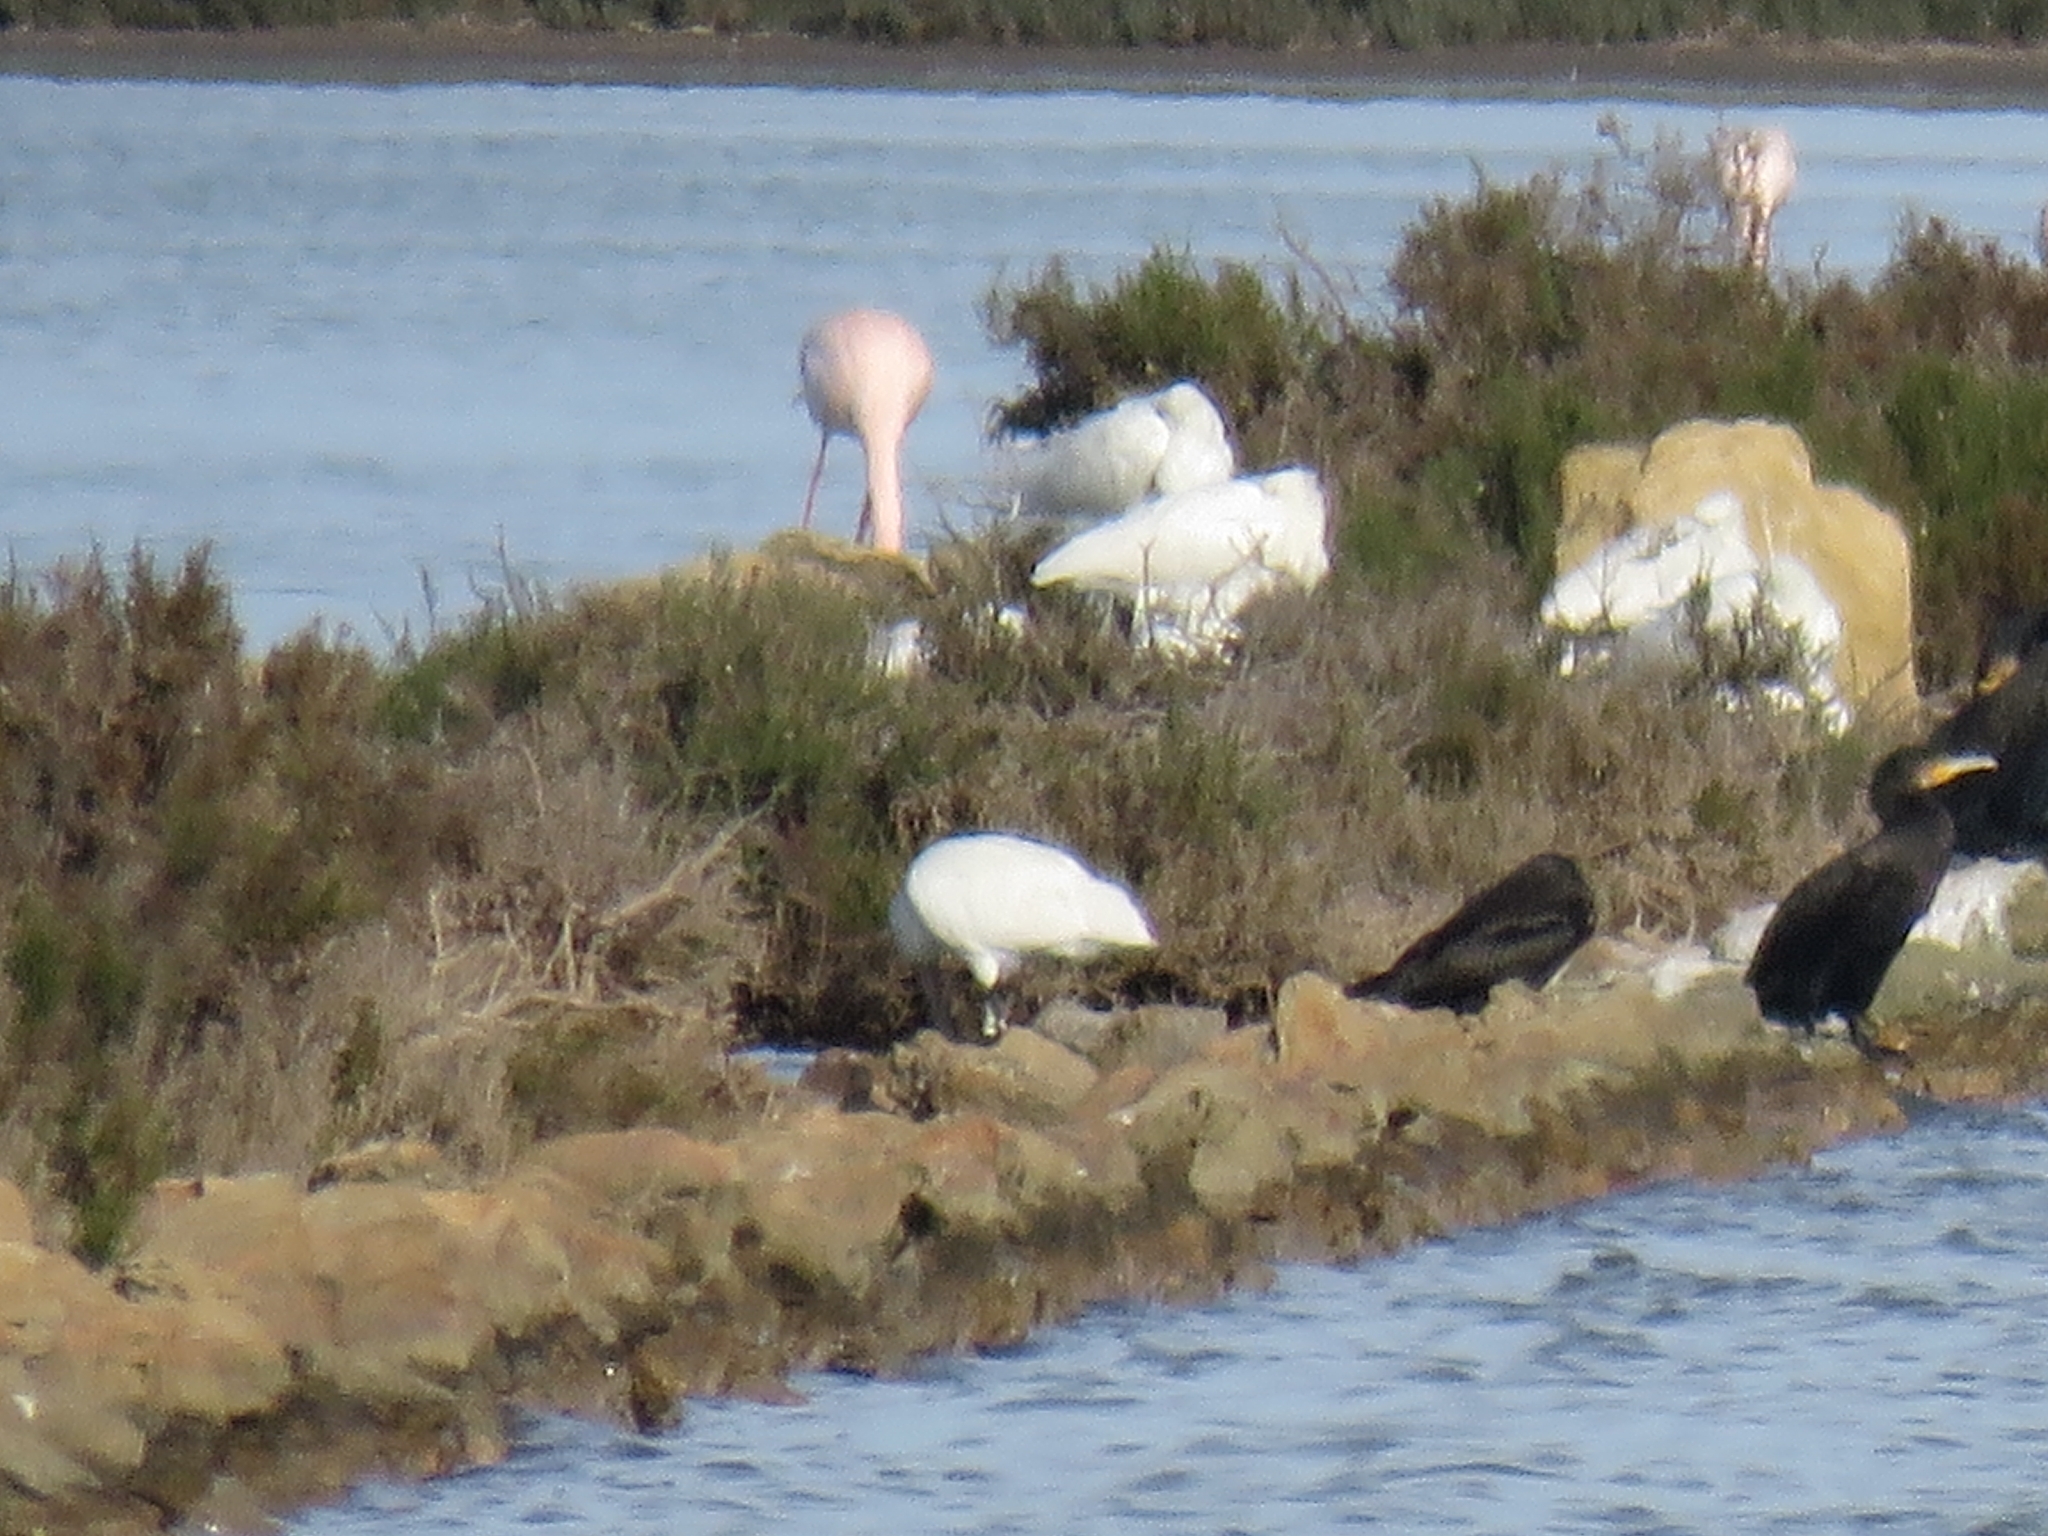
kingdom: Animalia
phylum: Chordata
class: Aves
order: Pelecaniformes
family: Threskiornithidae
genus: Platalea
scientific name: Platalea leucorodia
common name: Eurasian spoonbill
